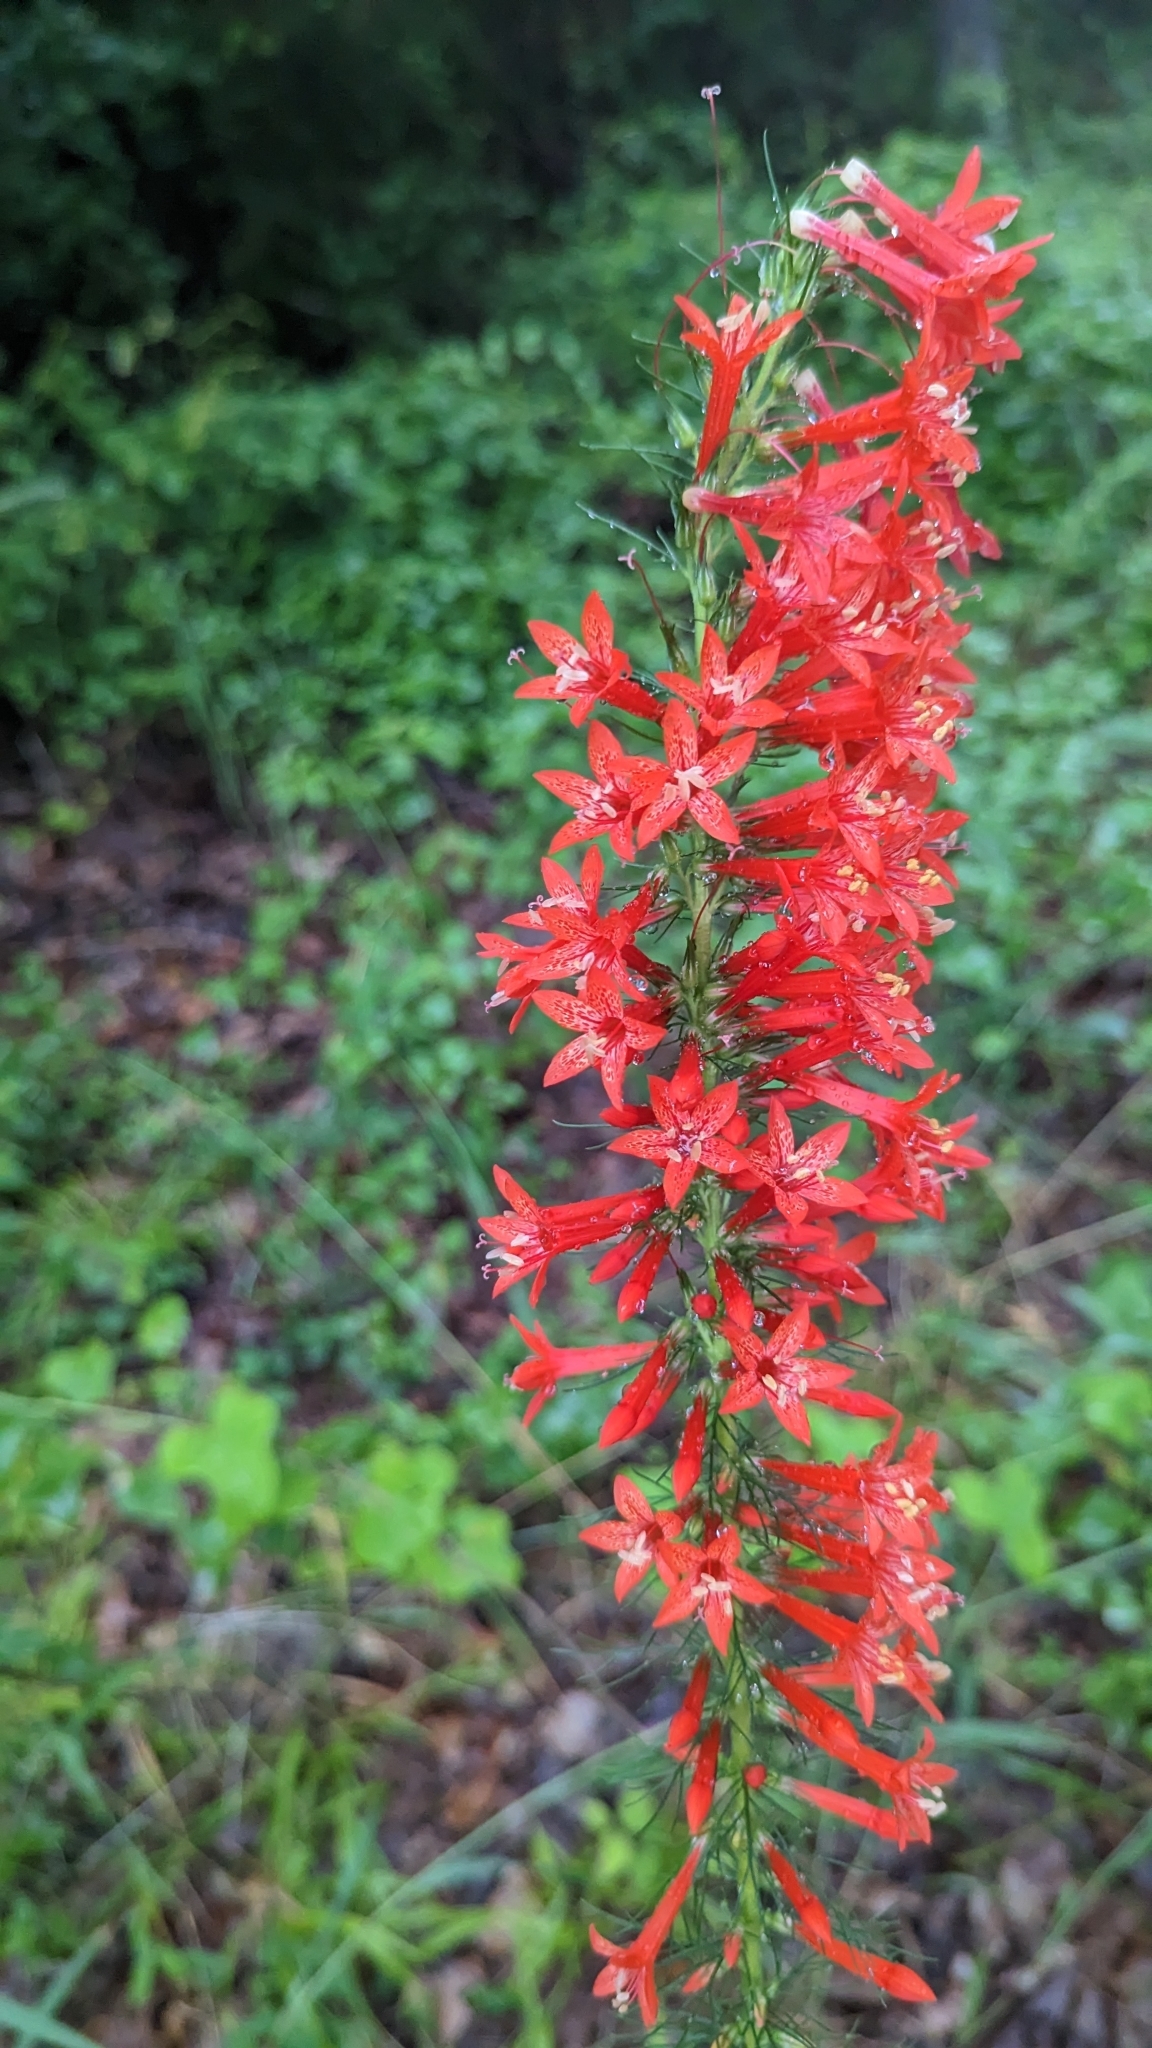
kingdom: Plantae
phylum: Tracheophyta
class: Magnoliopsida
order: Ericales
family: Polemoniaceae
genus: Ipomopsis
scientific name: Ipomopsis rubra
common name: Skyrocket
